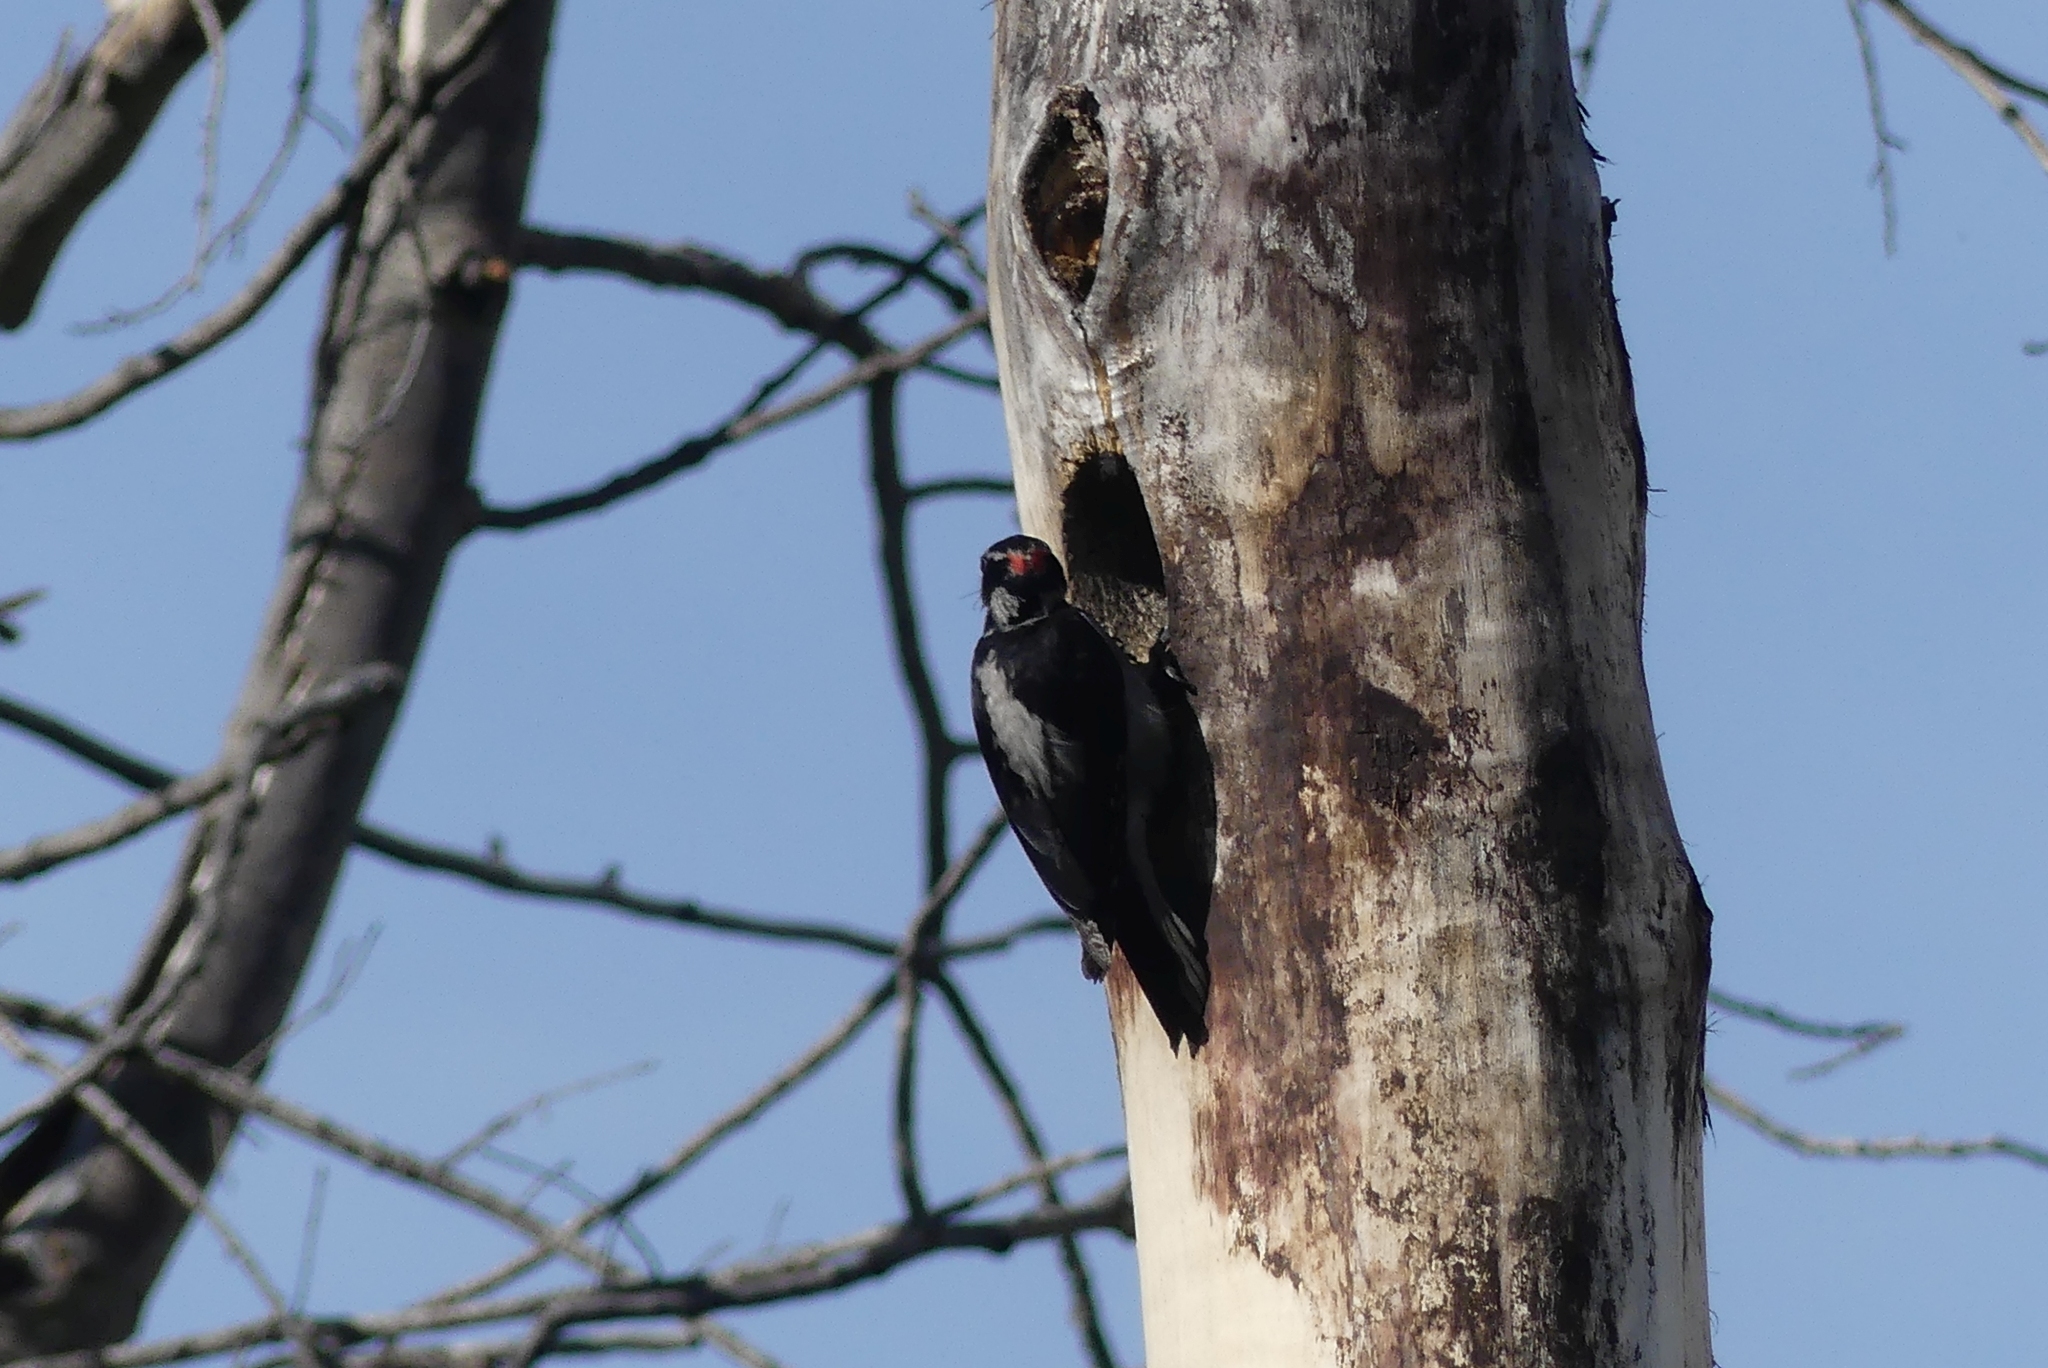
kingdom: Animalia
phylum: Chordata
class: Aves
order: Piciformes
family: Picidae
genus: Leuconotopicus
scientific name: Leuconotopicus villosus
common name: Hairy woodpecker
